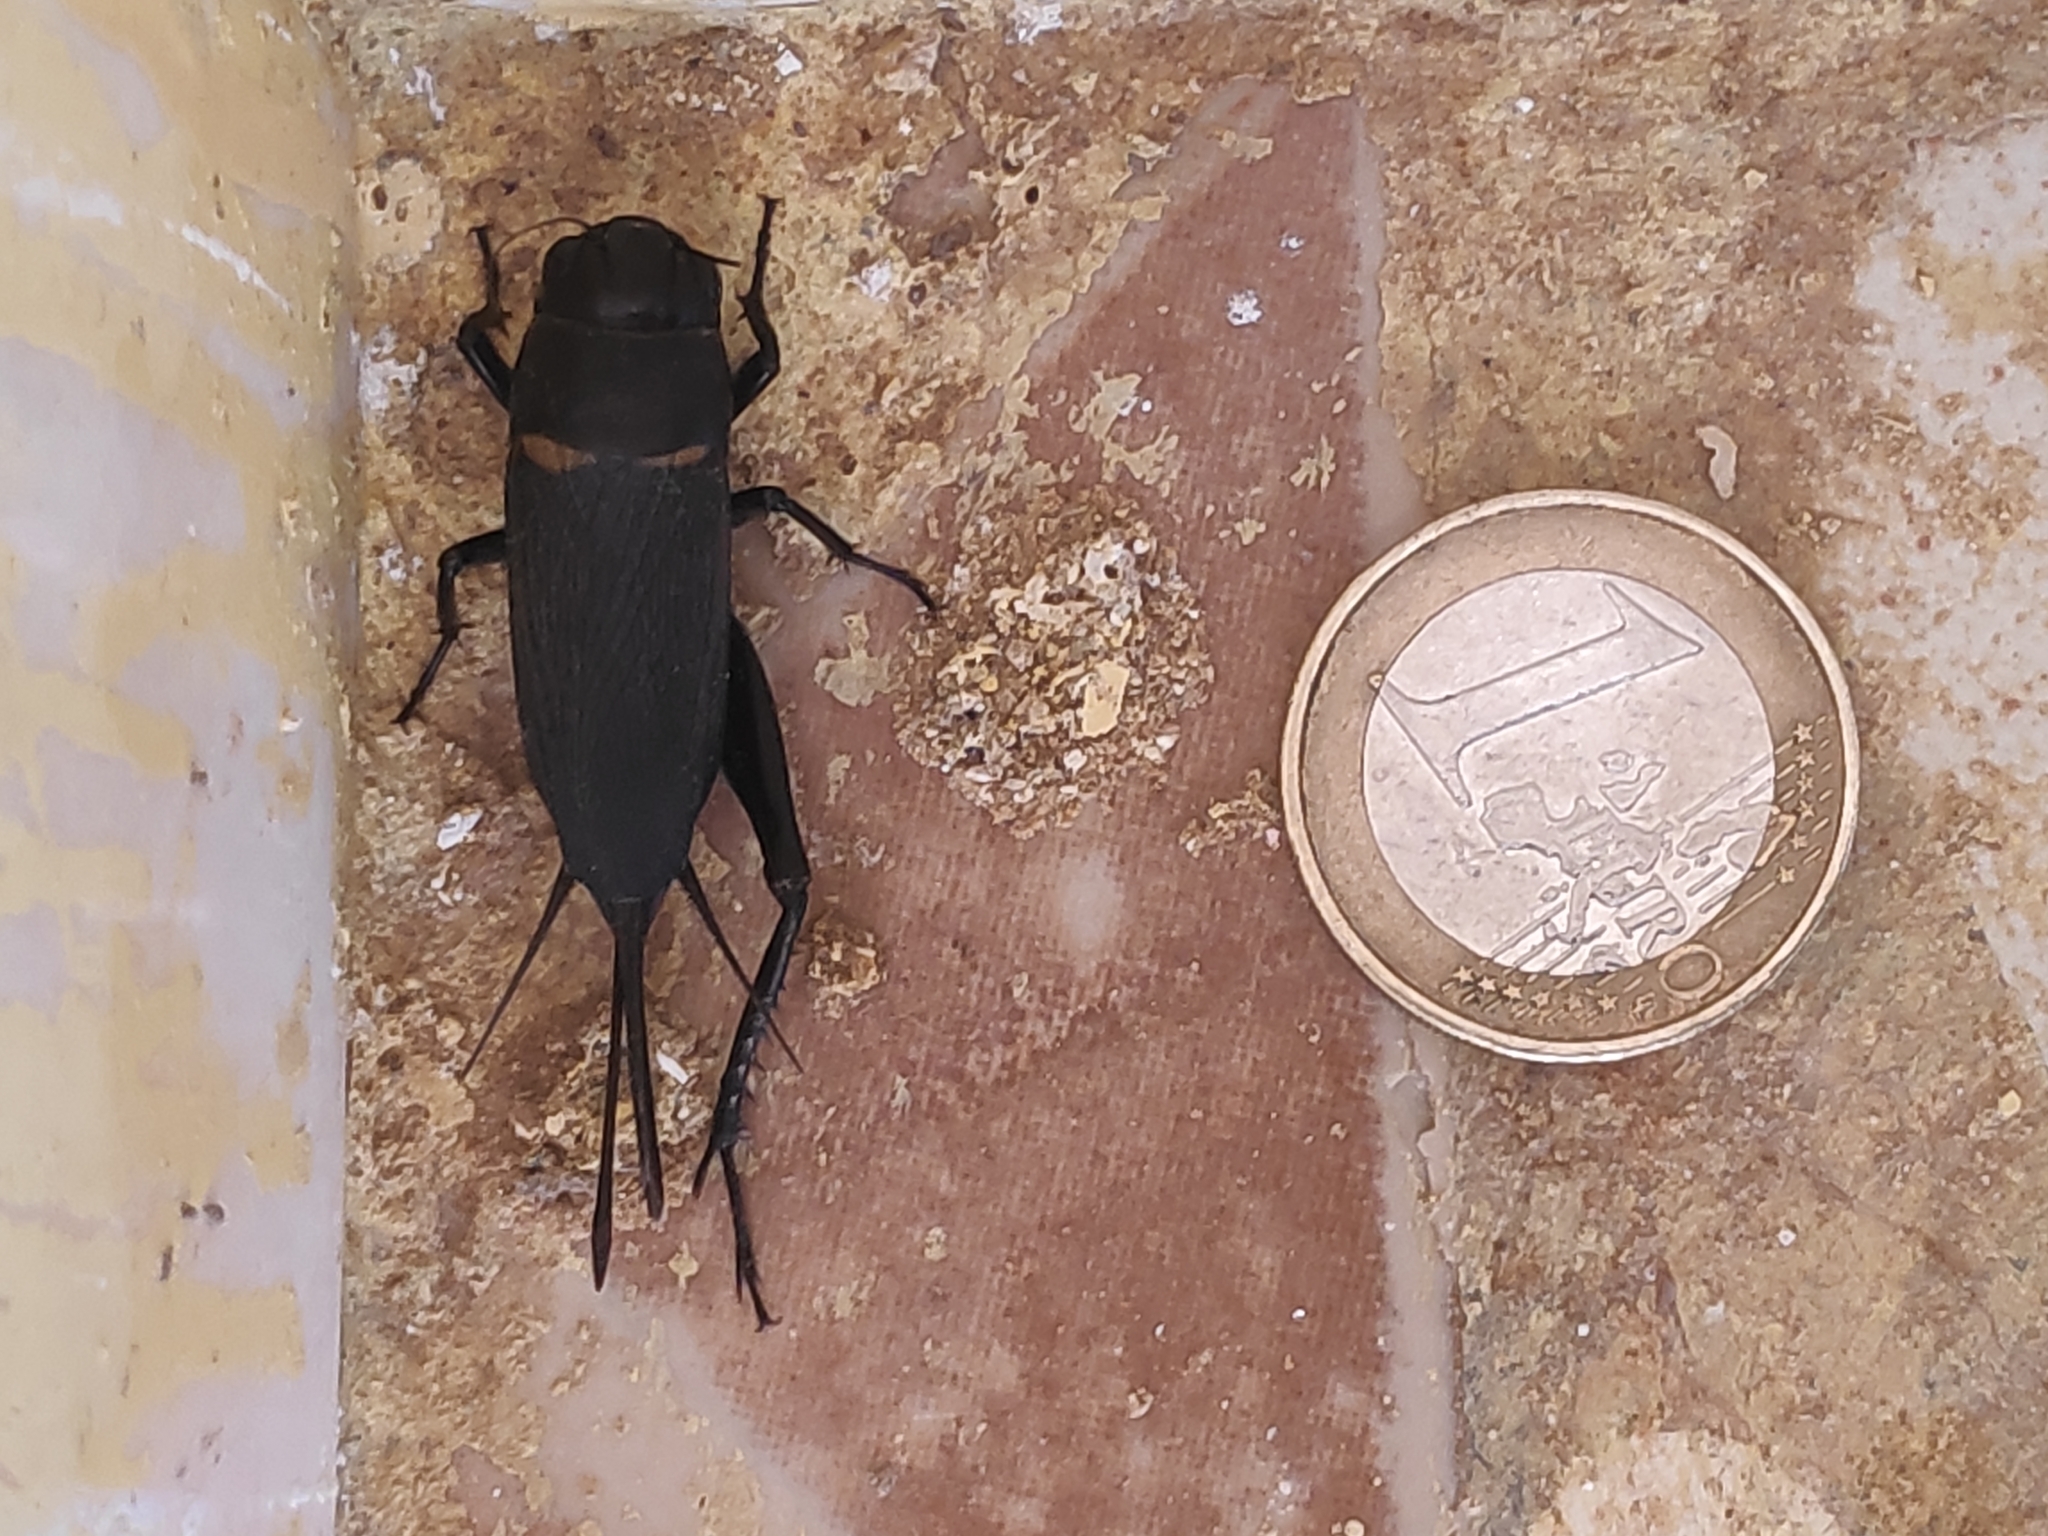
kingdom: Animalia
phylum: Arthropoda
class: Insecta
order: Orthoptera
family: Gryllidae
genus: Gryllus
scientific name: Gryllus bimaculatus
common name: Two-spotted cricket
